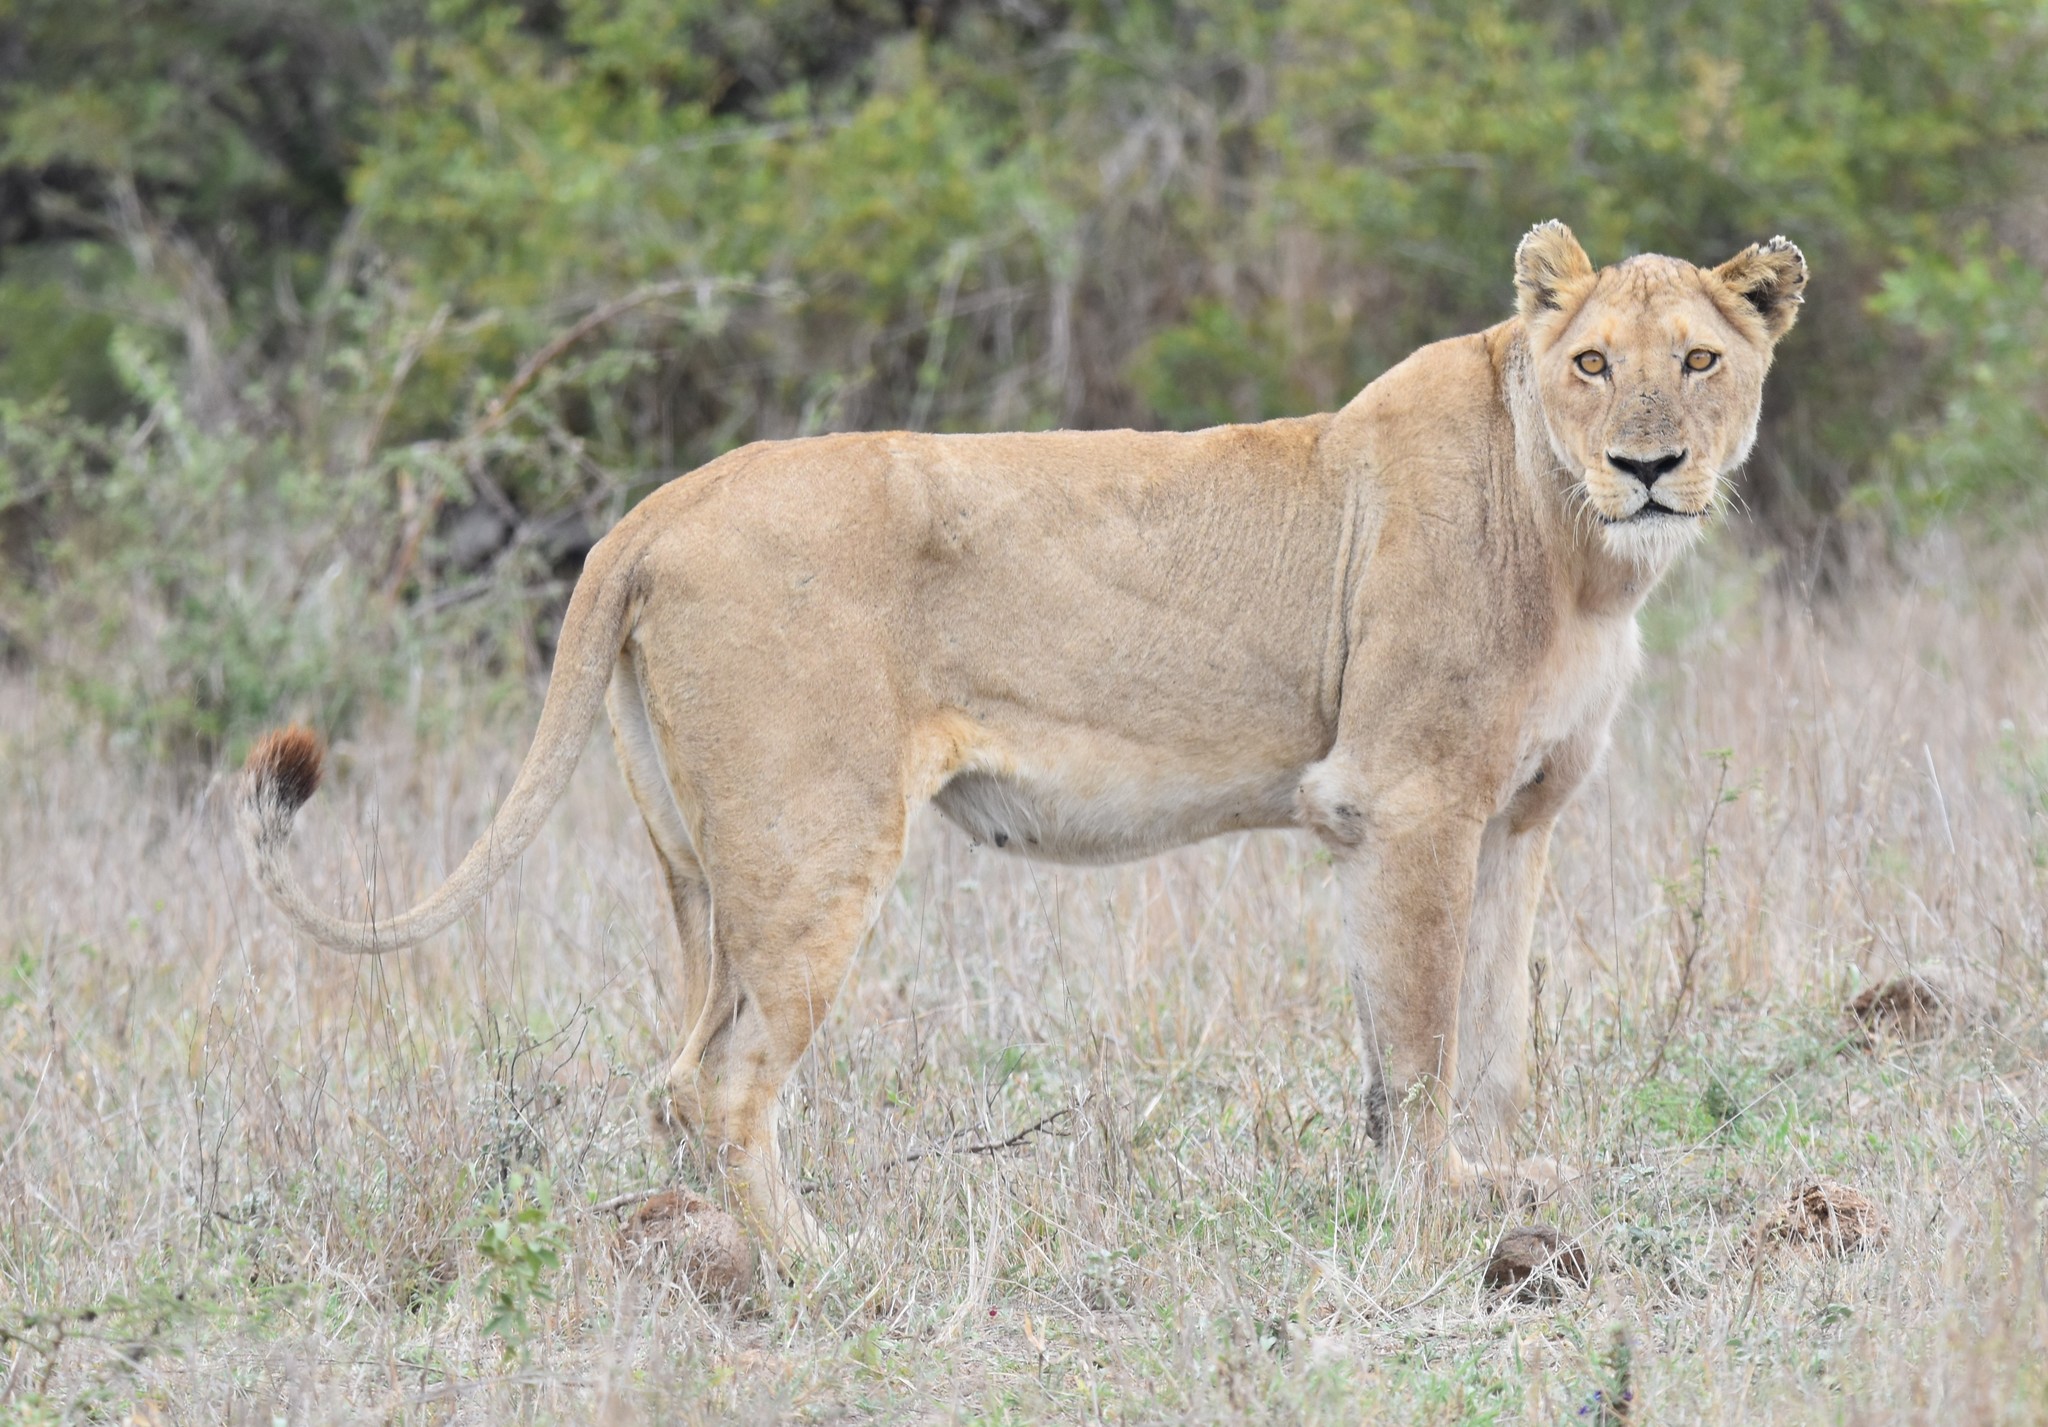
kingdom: Animalia
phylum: Chordata
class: Mammalia
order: Carnivora
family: Felidae
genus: Panthera
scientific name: Panthera leo
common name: Lion
